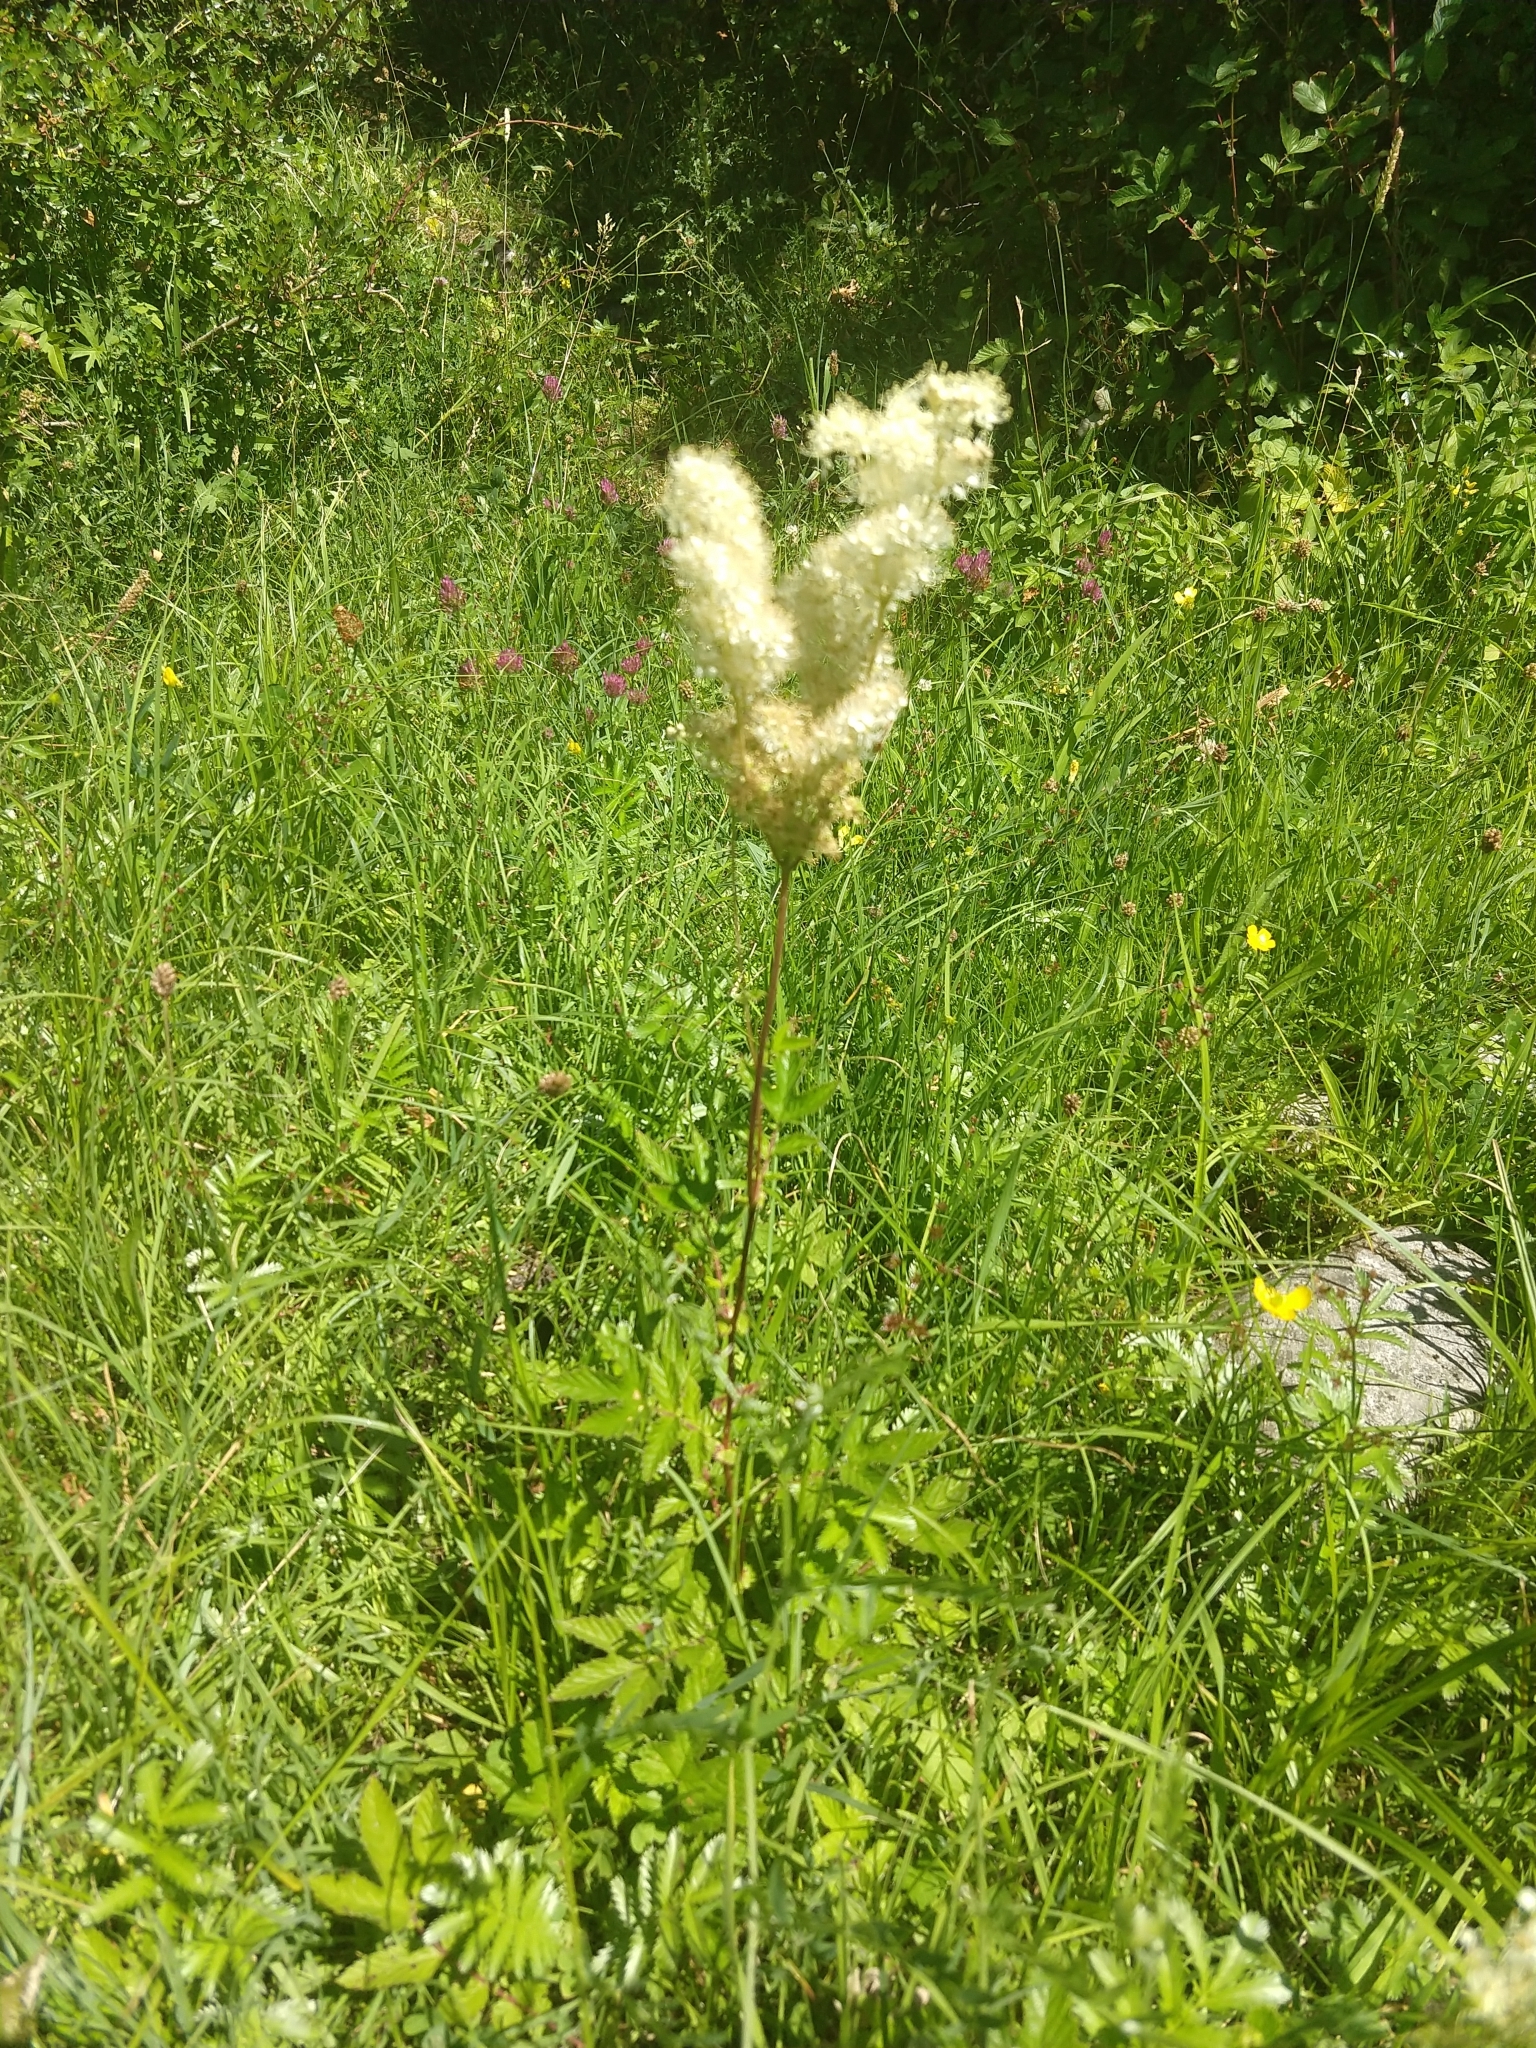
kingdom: Plantae
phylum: Tracheophyta
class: Magnoliopsida
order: Rosales
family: Rosaceae
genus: Filipendula
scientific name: Filipendula ulmaria
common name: Meadowsweet
